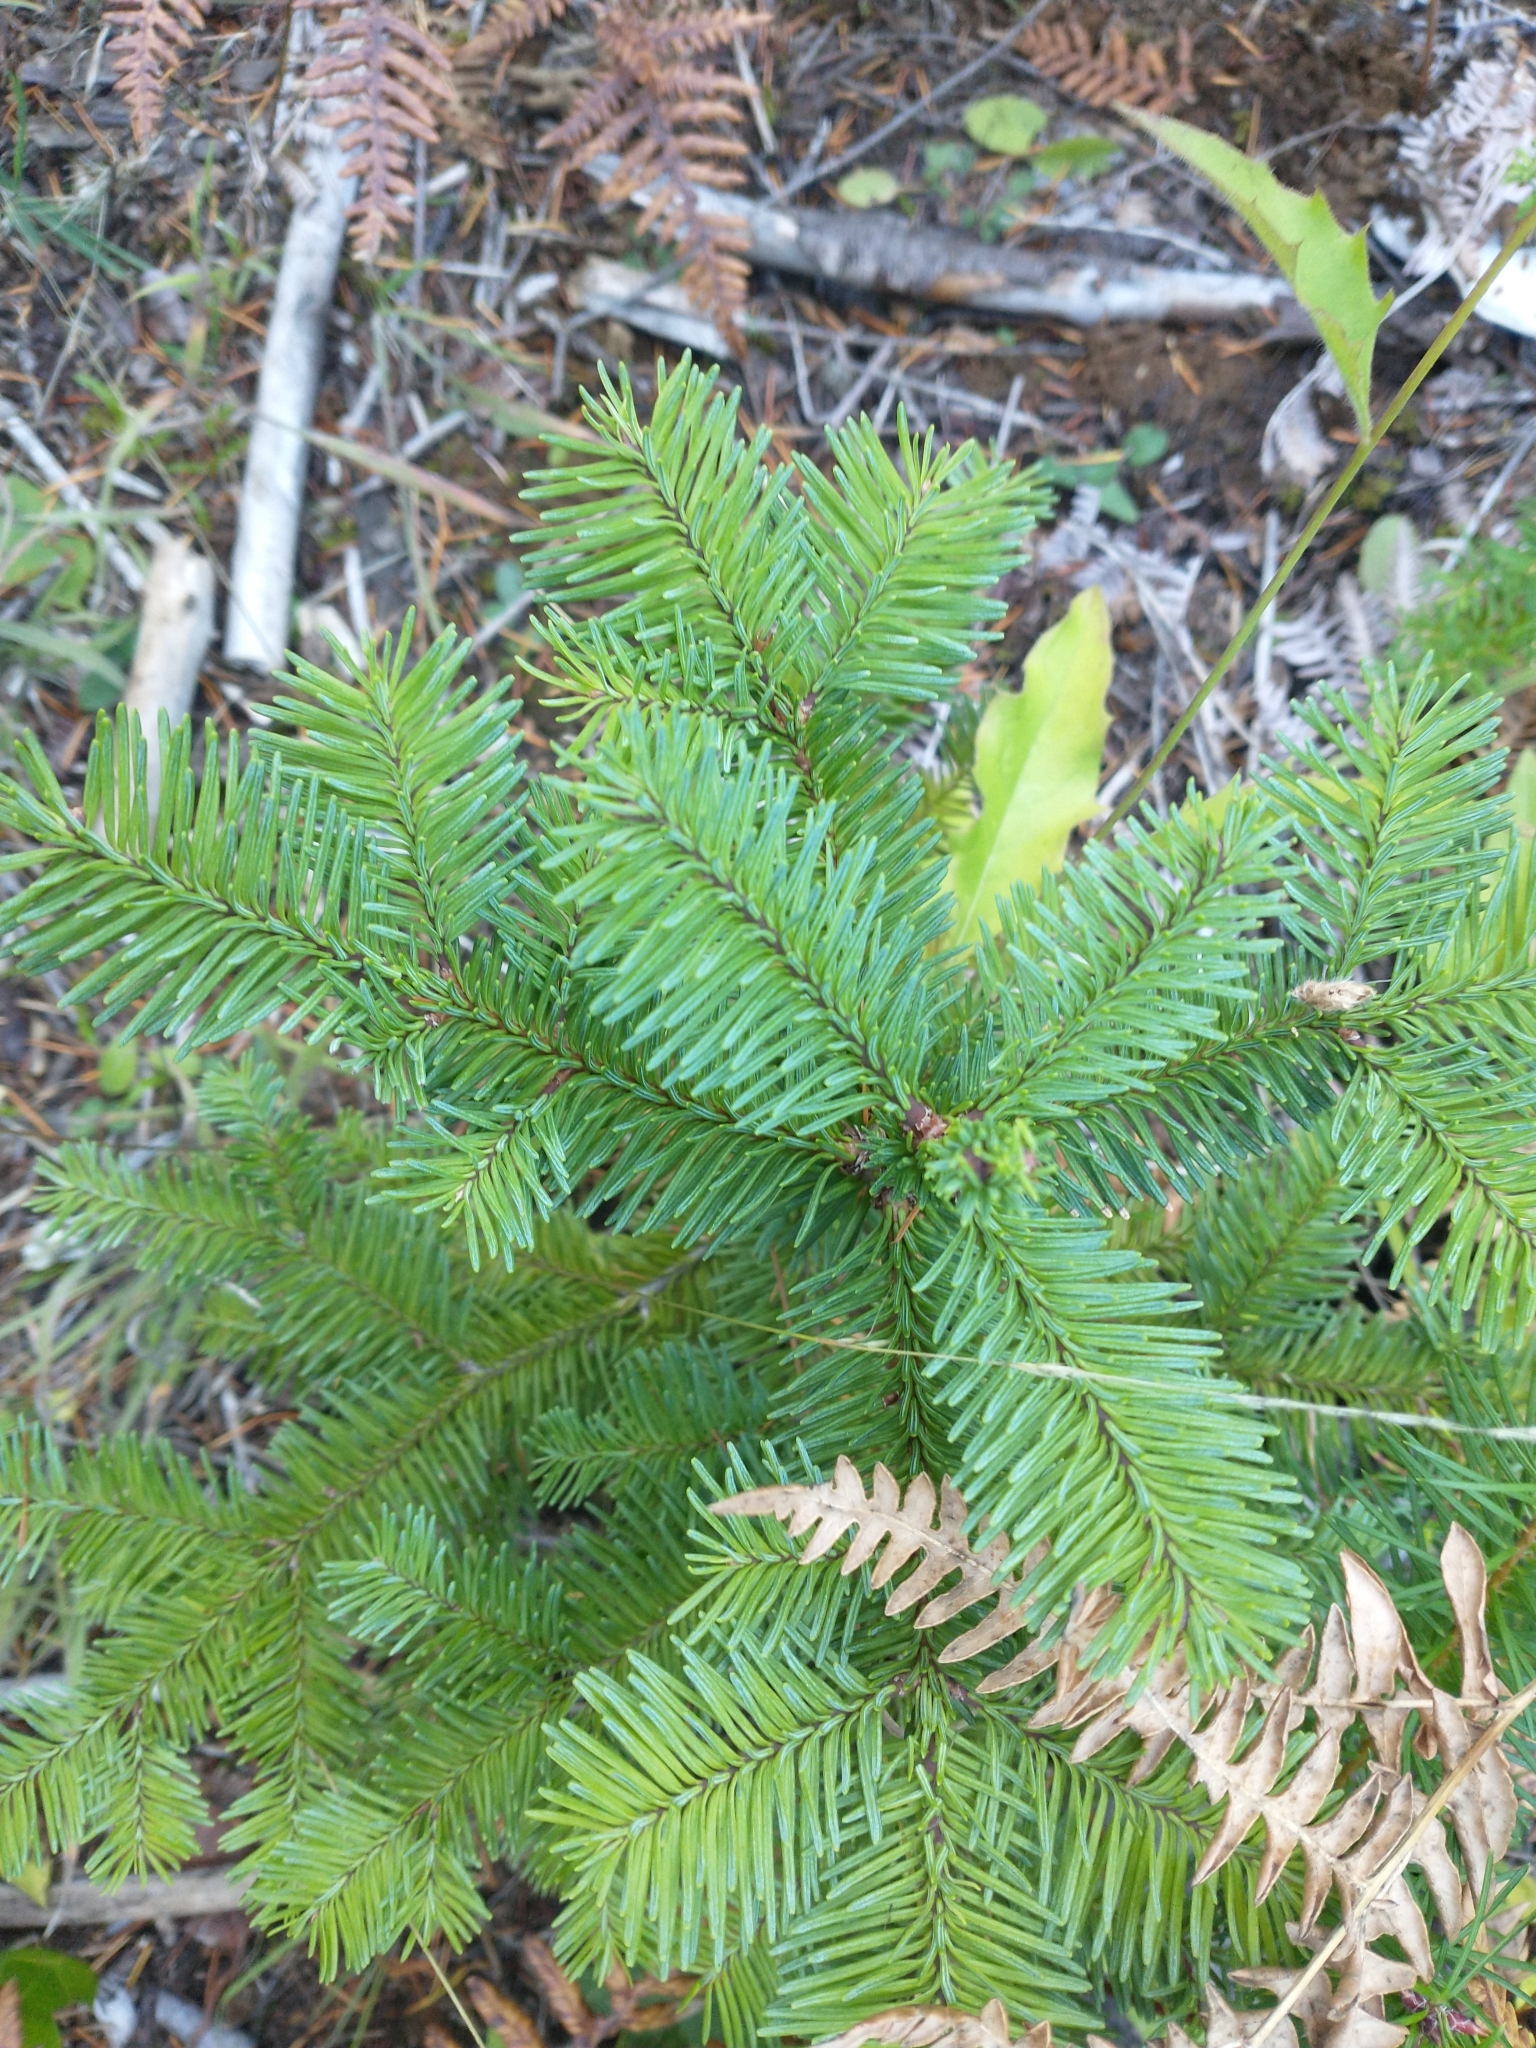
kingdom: Plantae
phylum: Tracheophyta
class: Pinopsida
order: Pinales
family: Pinaceae
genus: Abies
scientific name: Abies procera
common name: Noble fir
